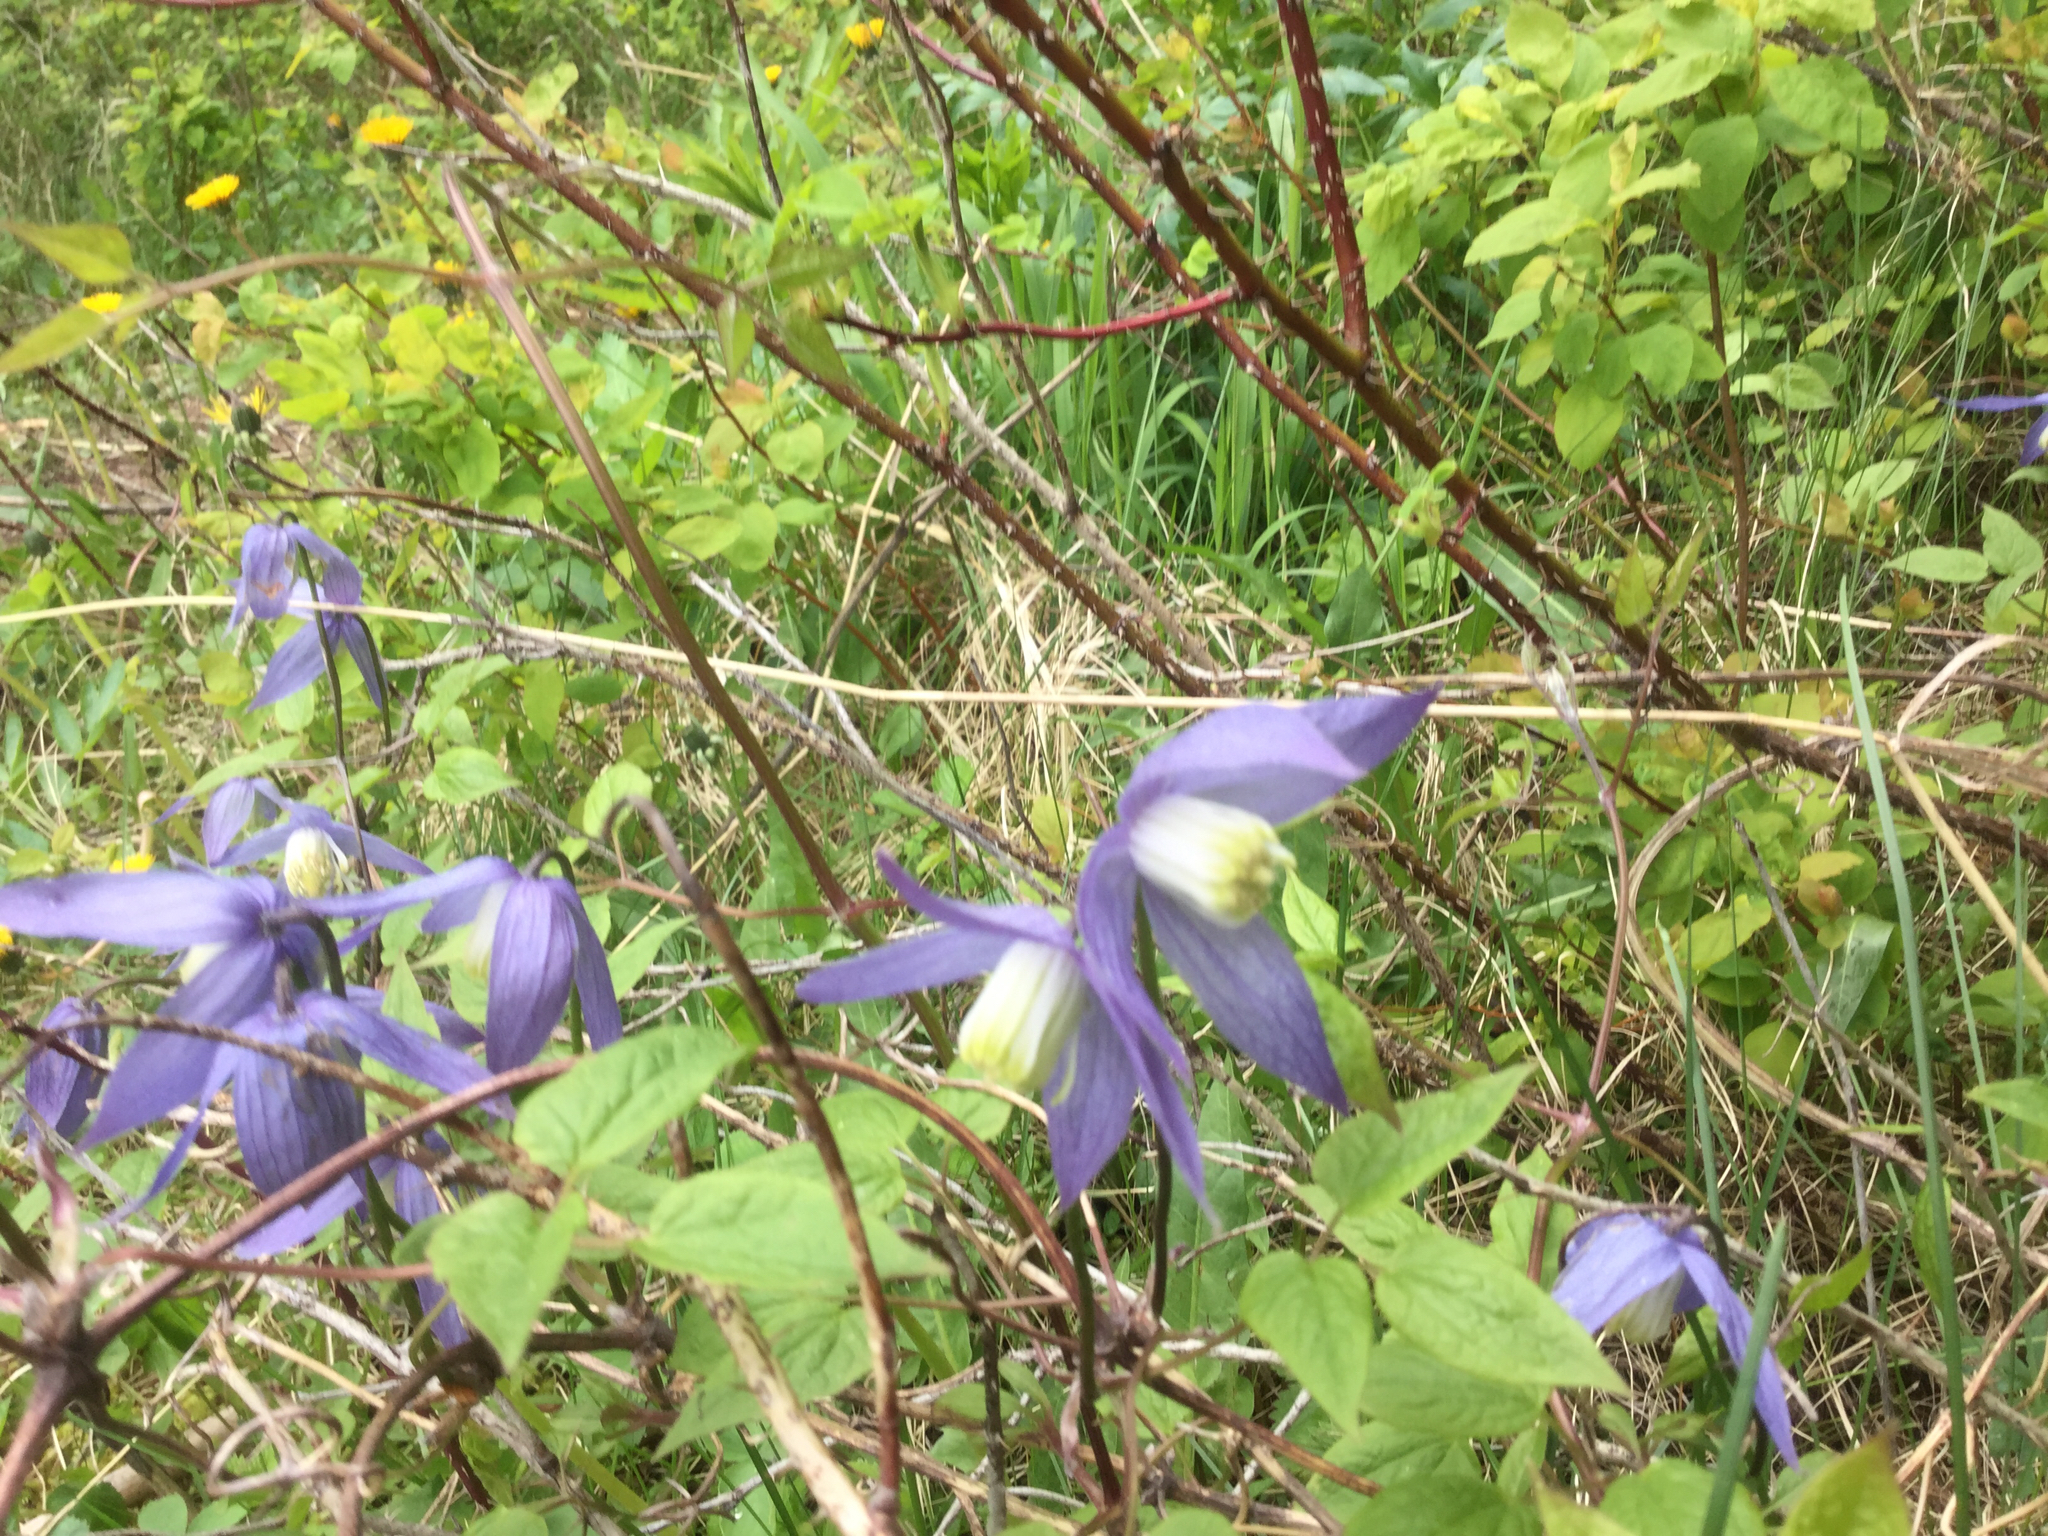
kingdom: Plantae
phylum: Tracheophyta
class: Magnoliopsida
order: Ranunculales
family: Ranunculaceae
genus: Clematis
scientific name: Clematis occidentalis
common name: Purple clematis
